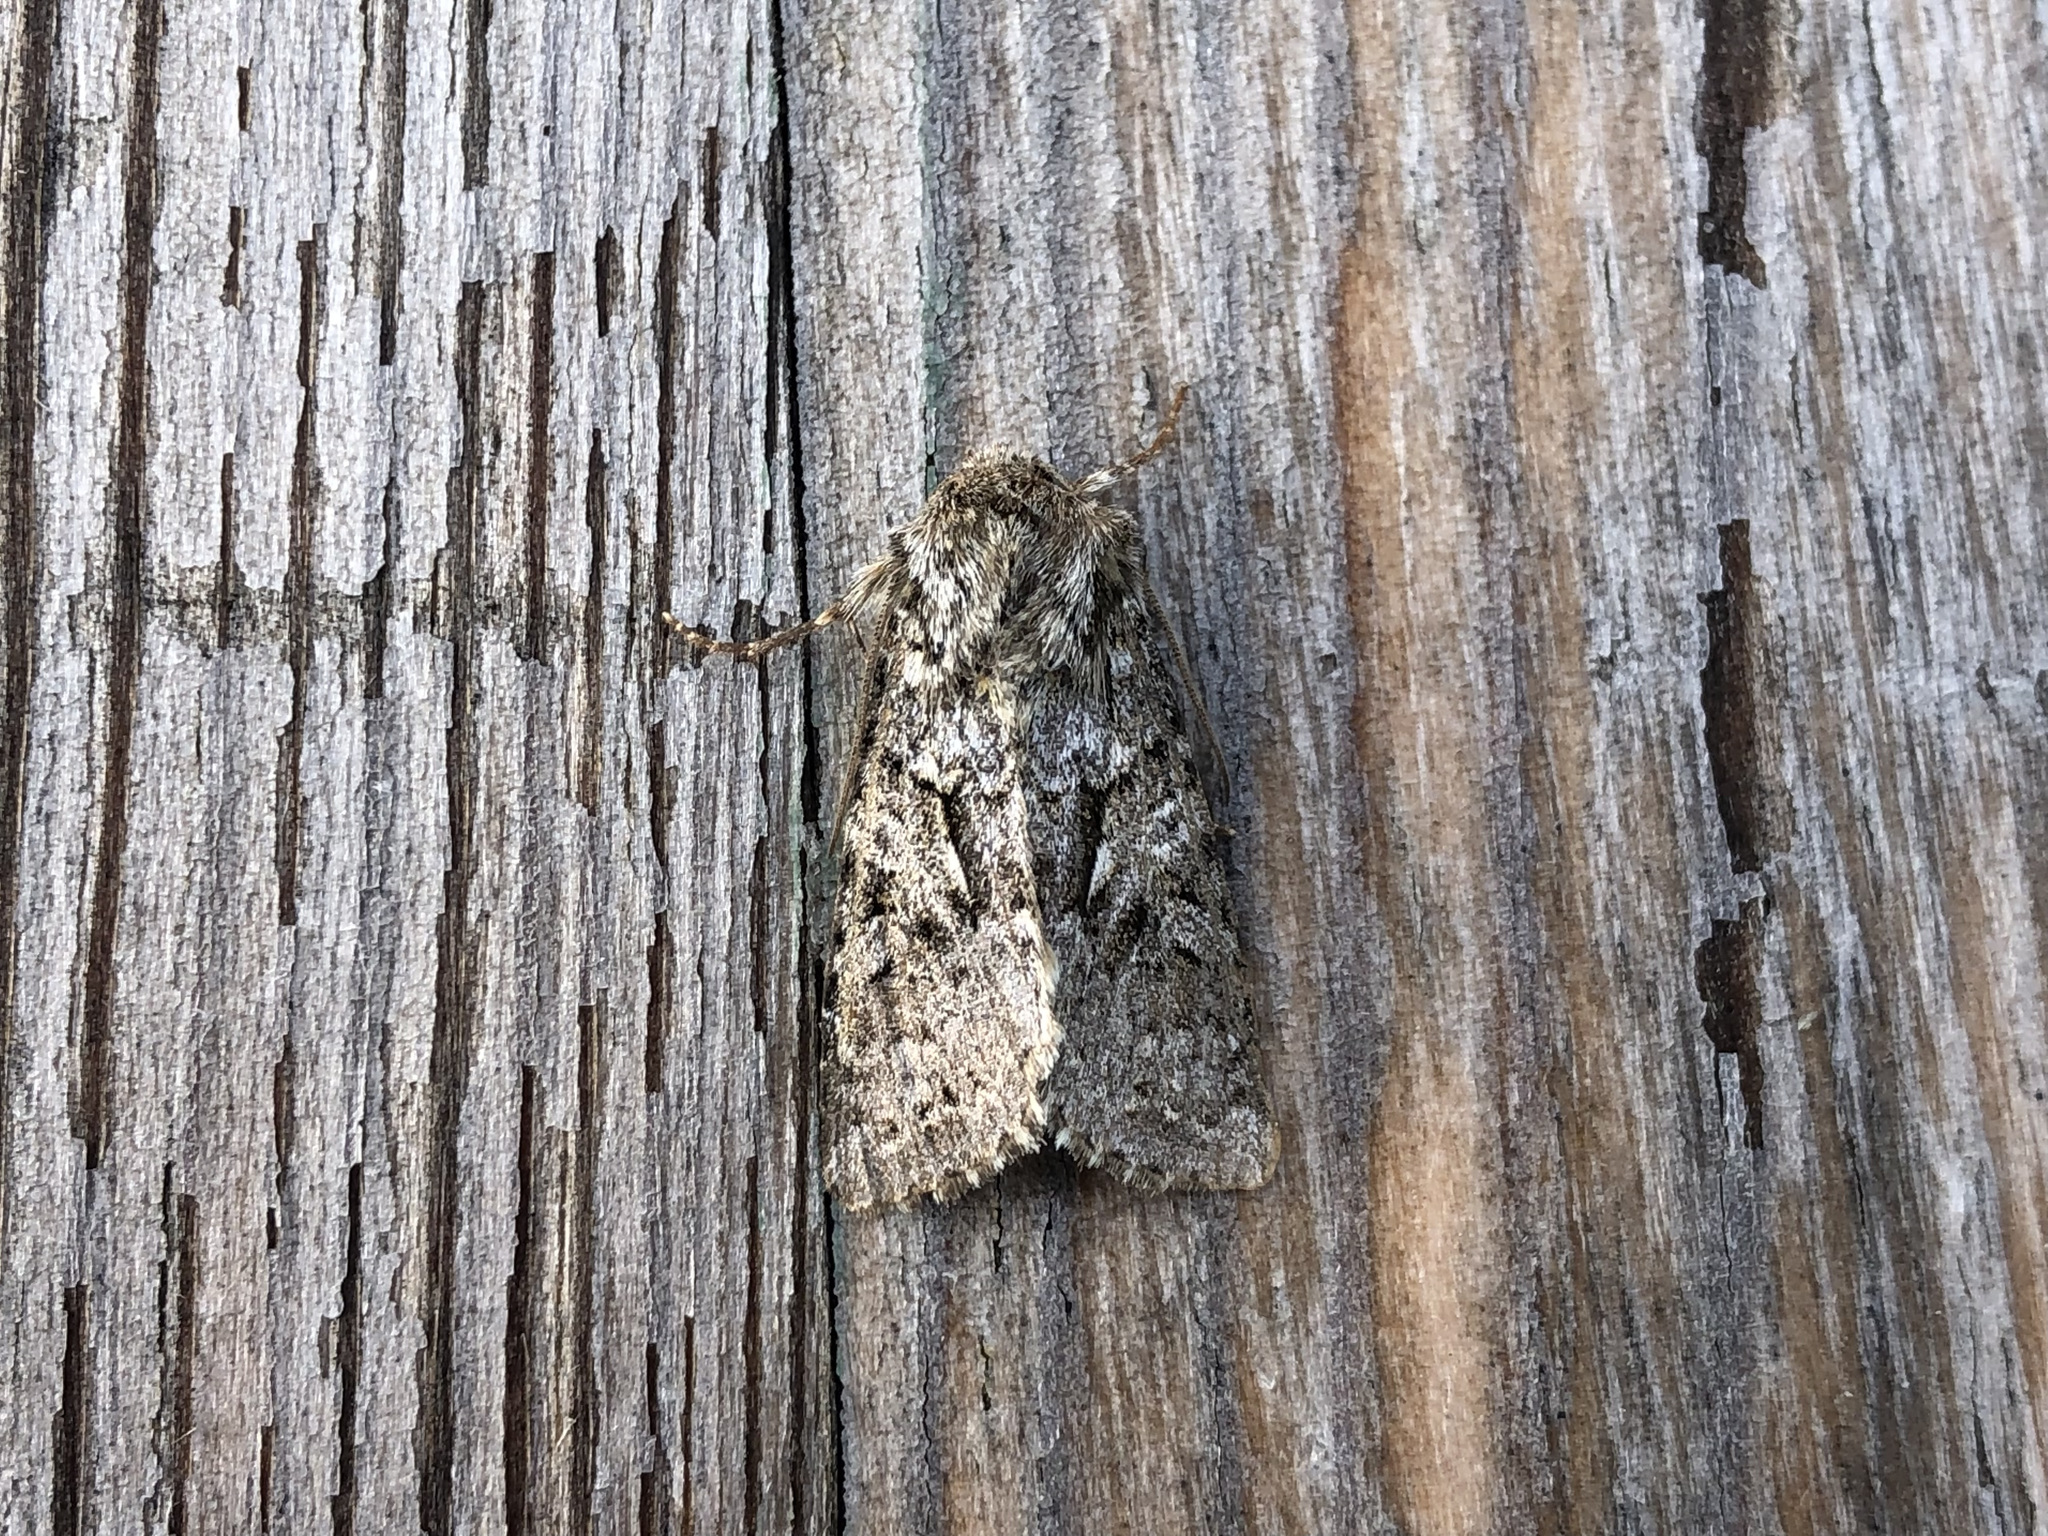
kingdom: Animalia
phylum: Arthropoda
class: Insecta
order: Lepidoptera
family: Noctuidae
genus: Hada
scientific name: Hada plebeja
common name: Shears
